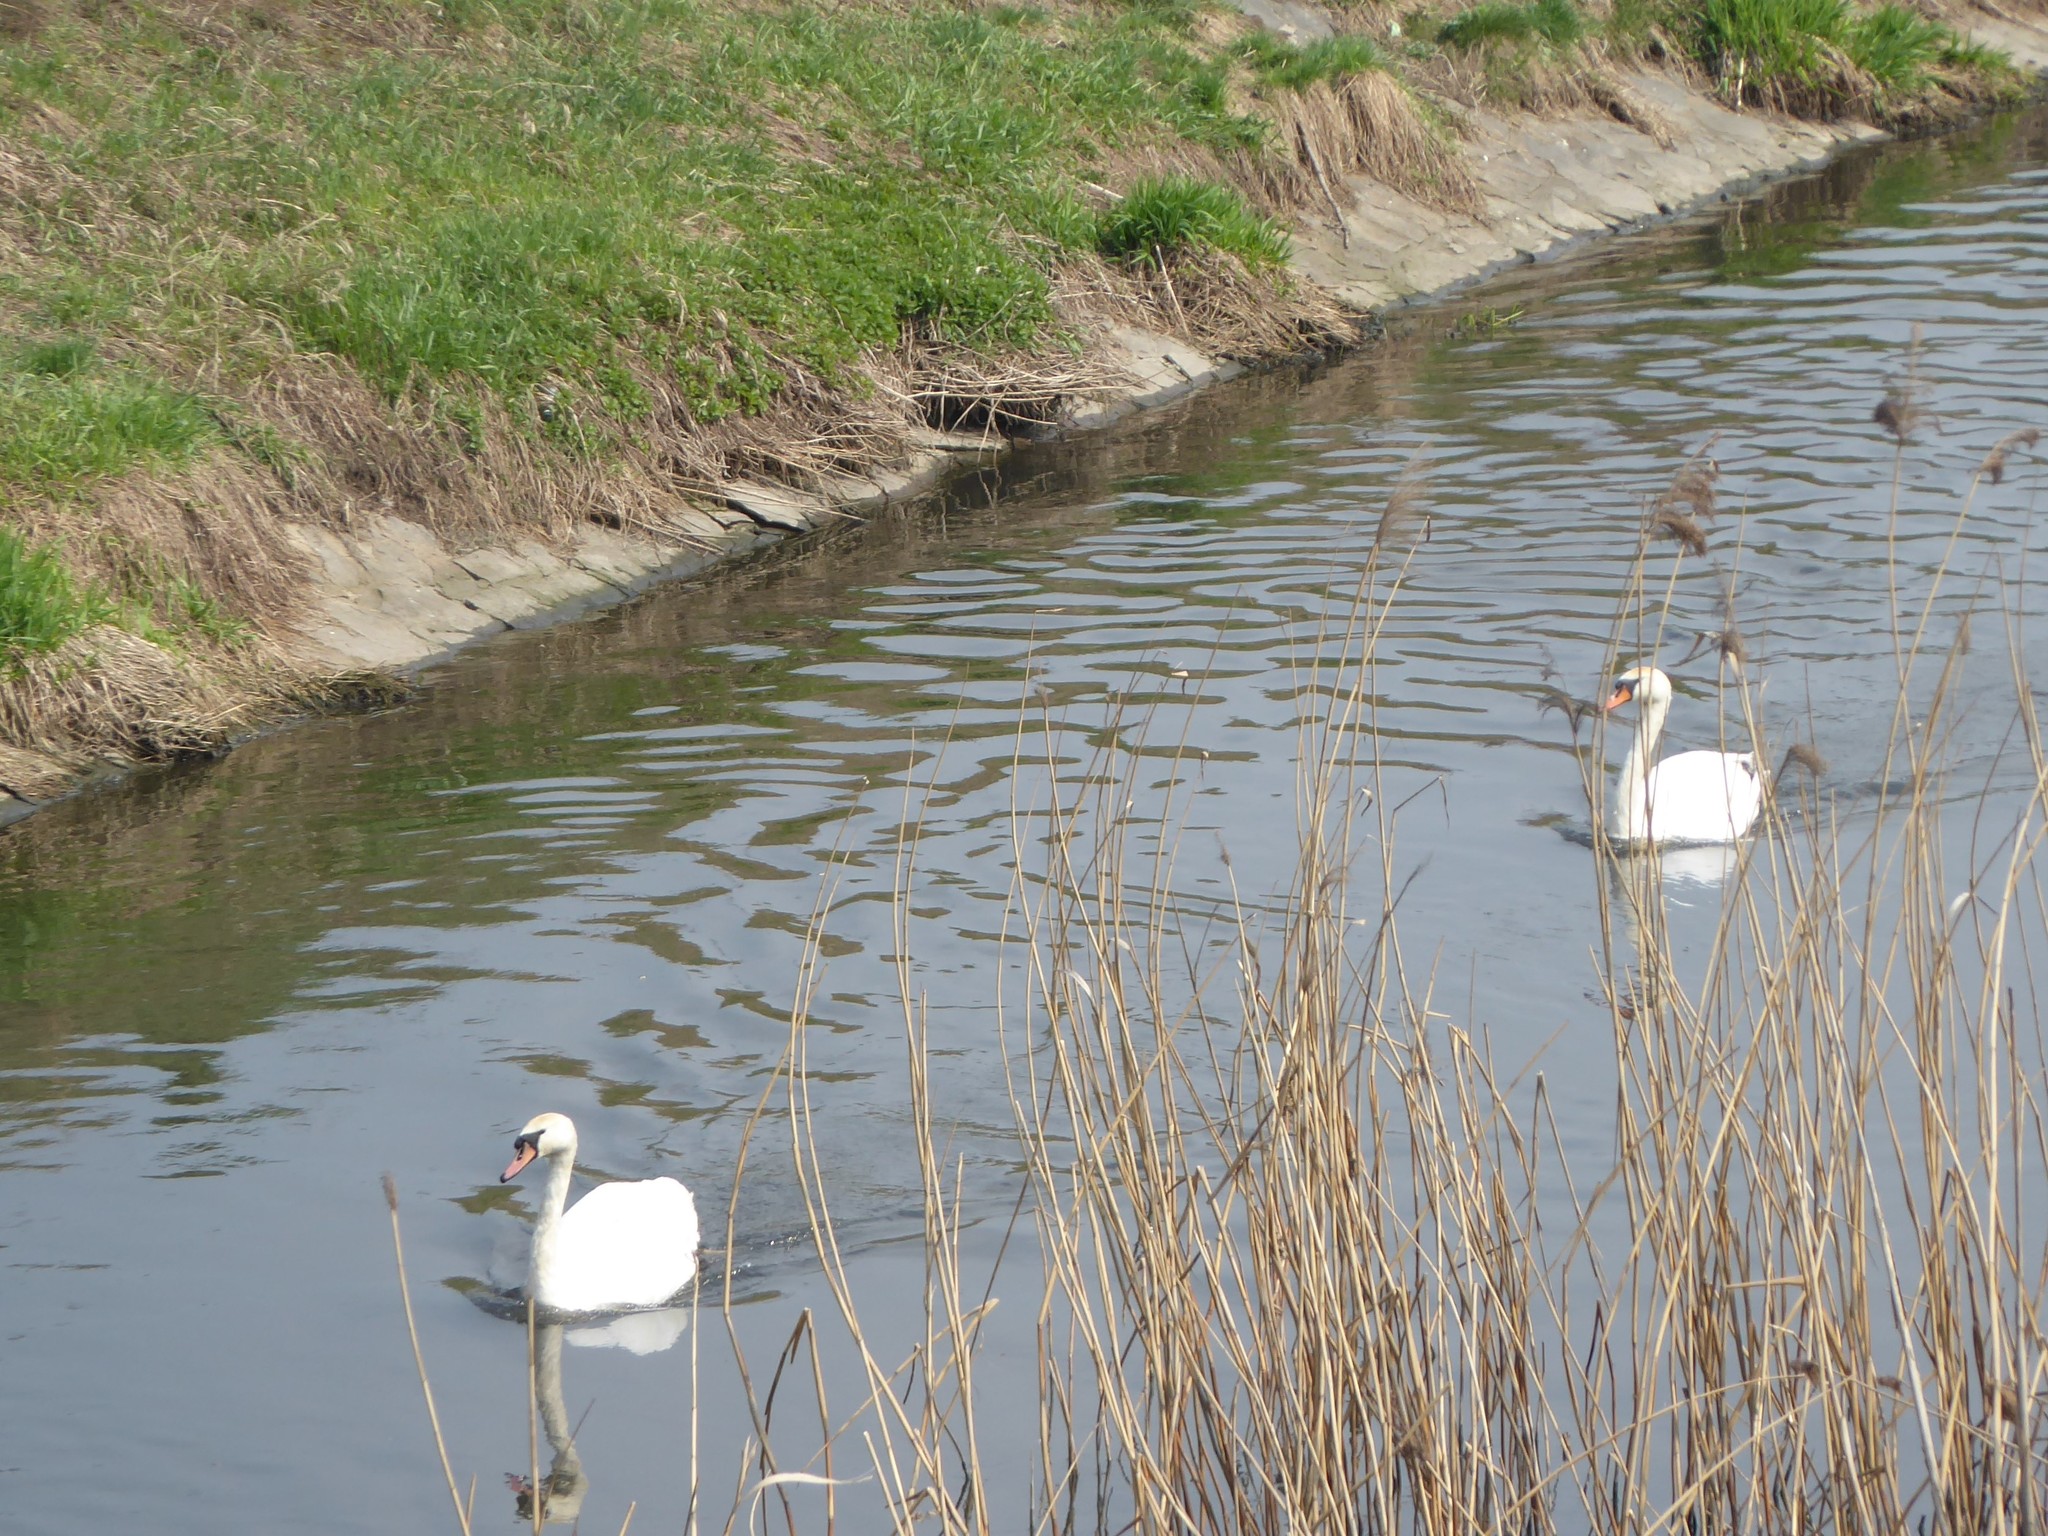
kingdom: Animalia
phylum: Chordata
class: Aves
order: Anseriformes
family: Anatidae
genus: Cygnus
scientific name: Cygnus olor
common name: Mute swan
